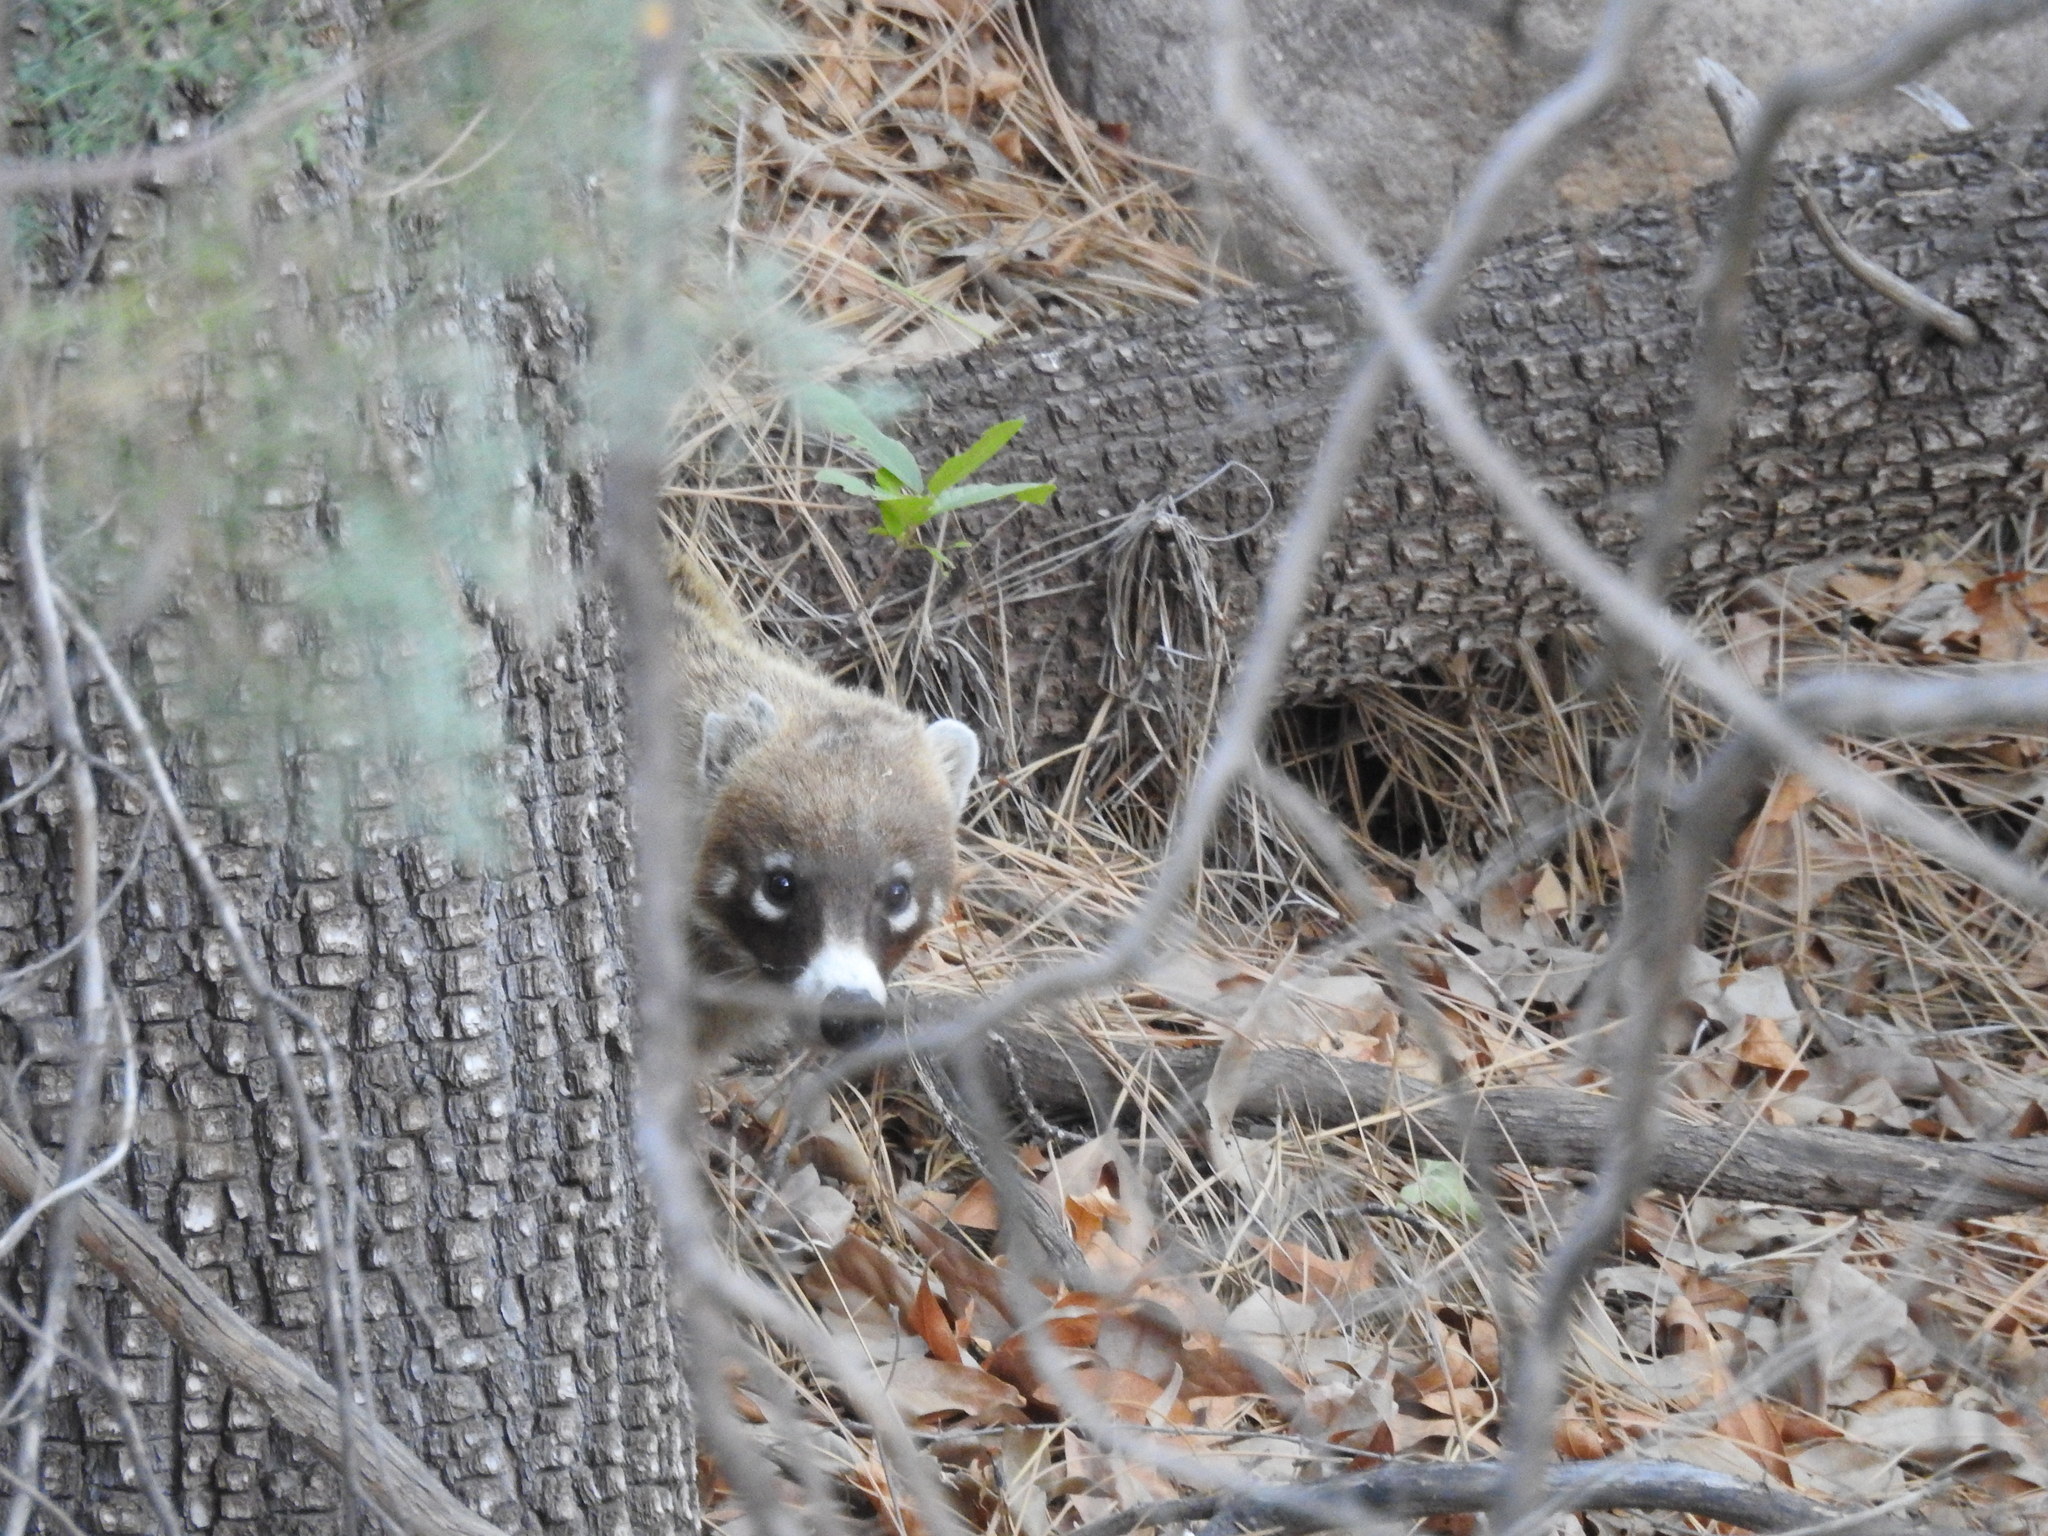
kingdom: Animalia
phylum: Chordata
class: Mammalia
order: Carnivora
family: Procyonidae
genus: Nasua
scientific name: Nasua narica
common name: White-nosed coati
